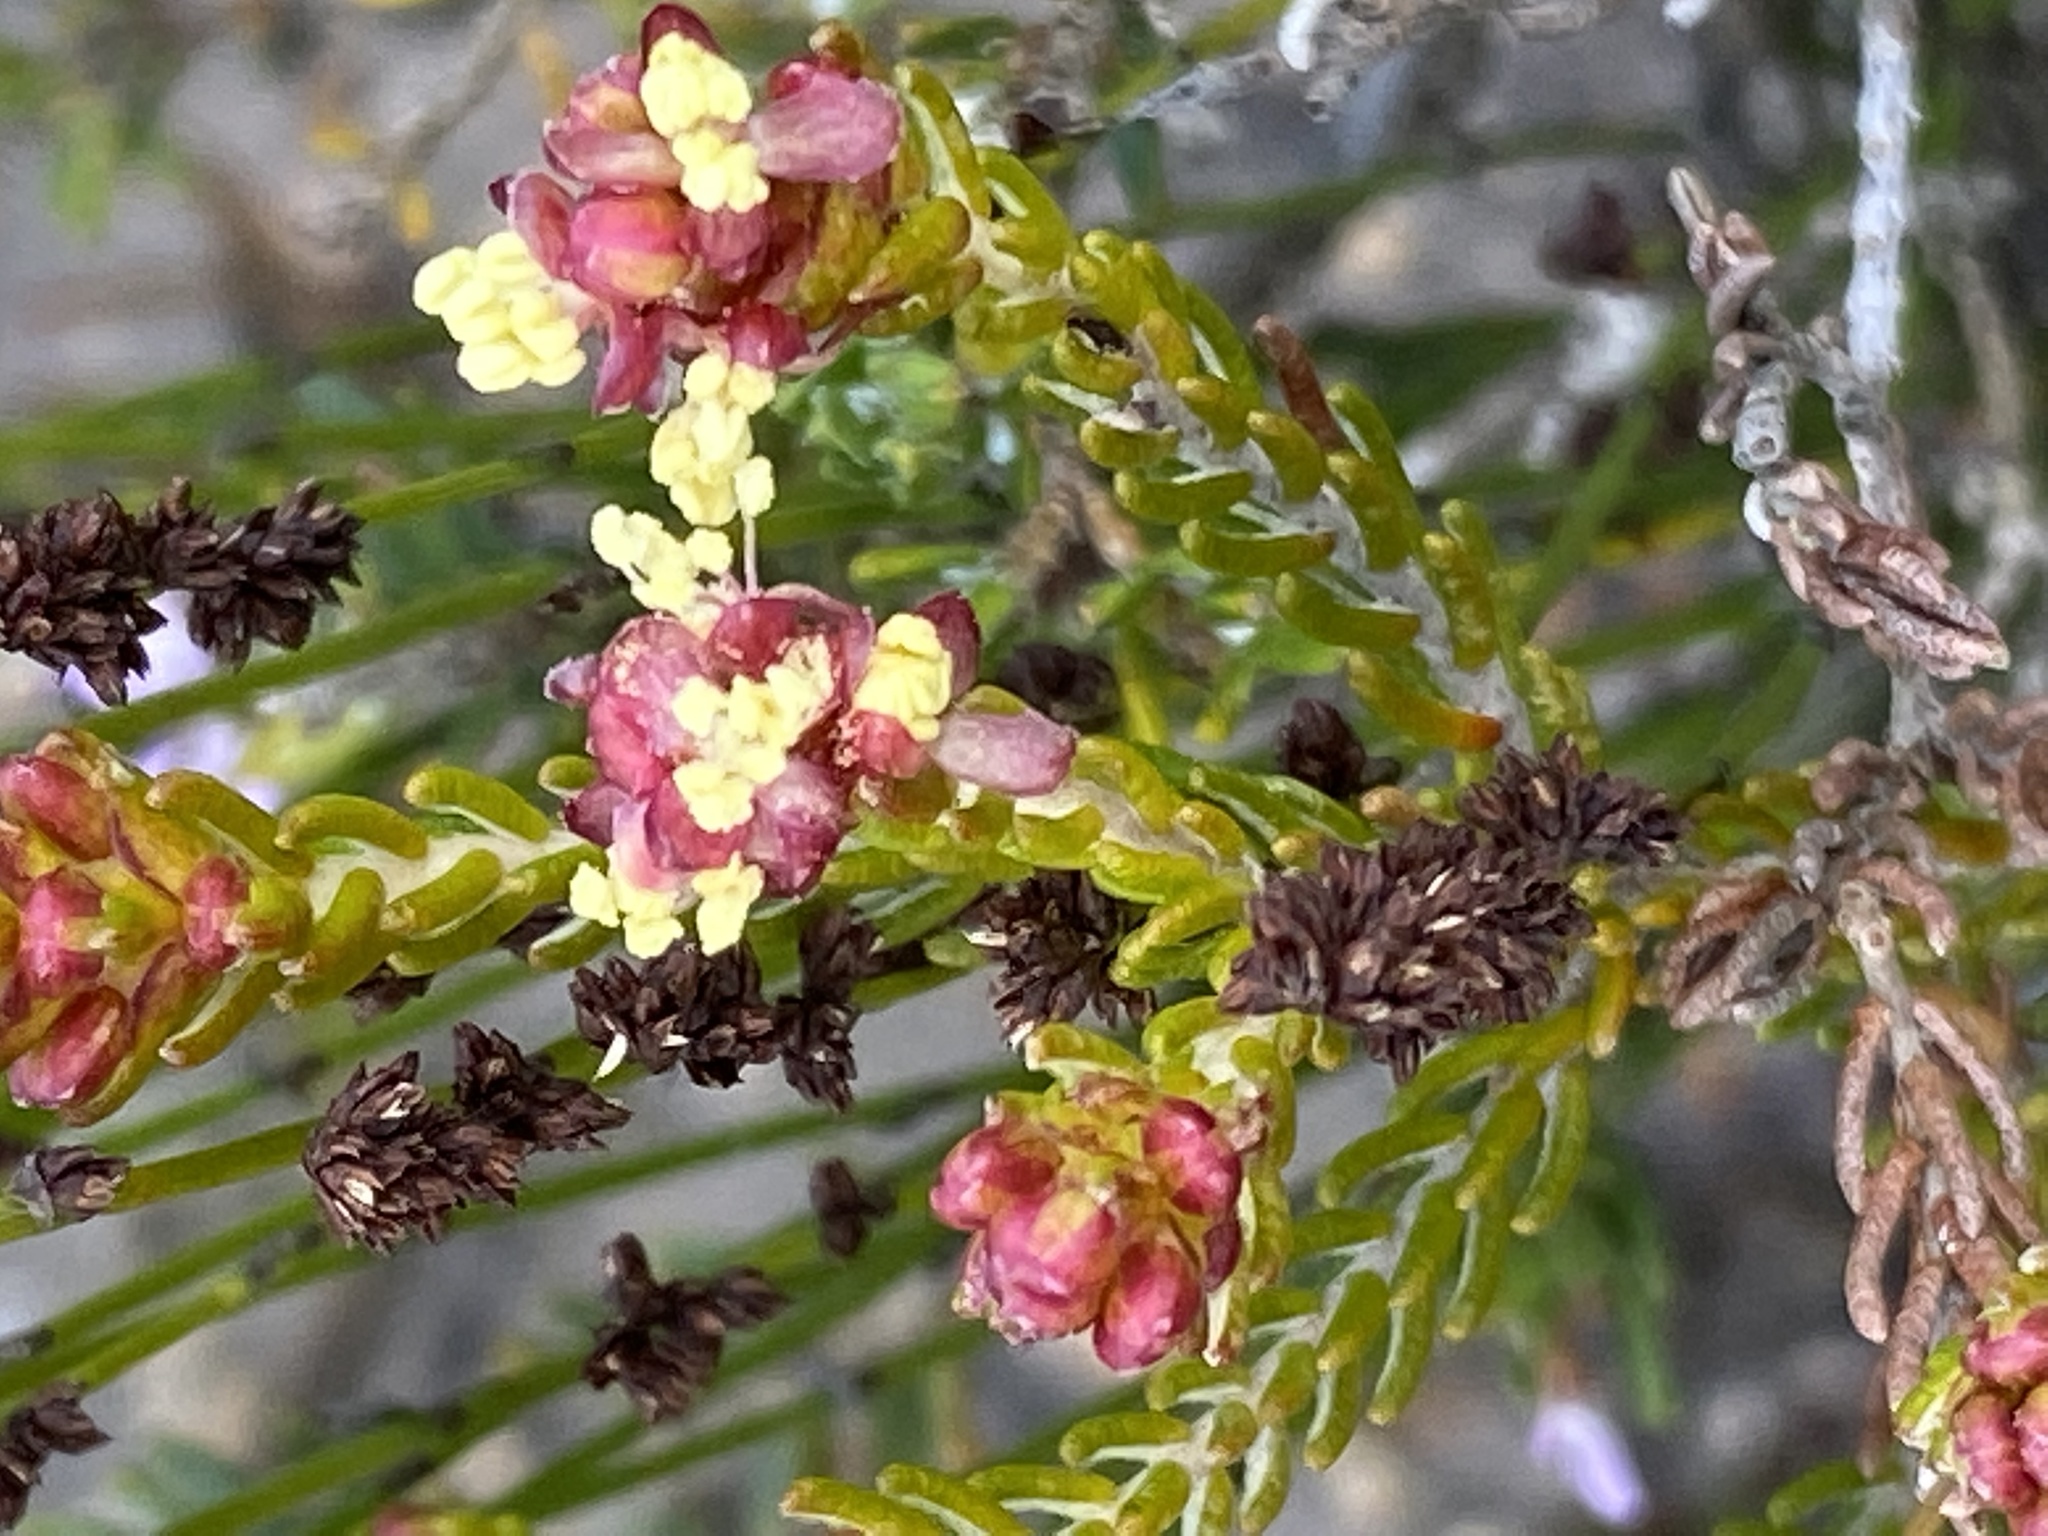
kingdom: Plantae
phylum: Tracheophyta
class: Magnoliopsida
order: Malvales
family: Thymelaeaceae
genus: Passerina
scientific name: Passerina galpinii
